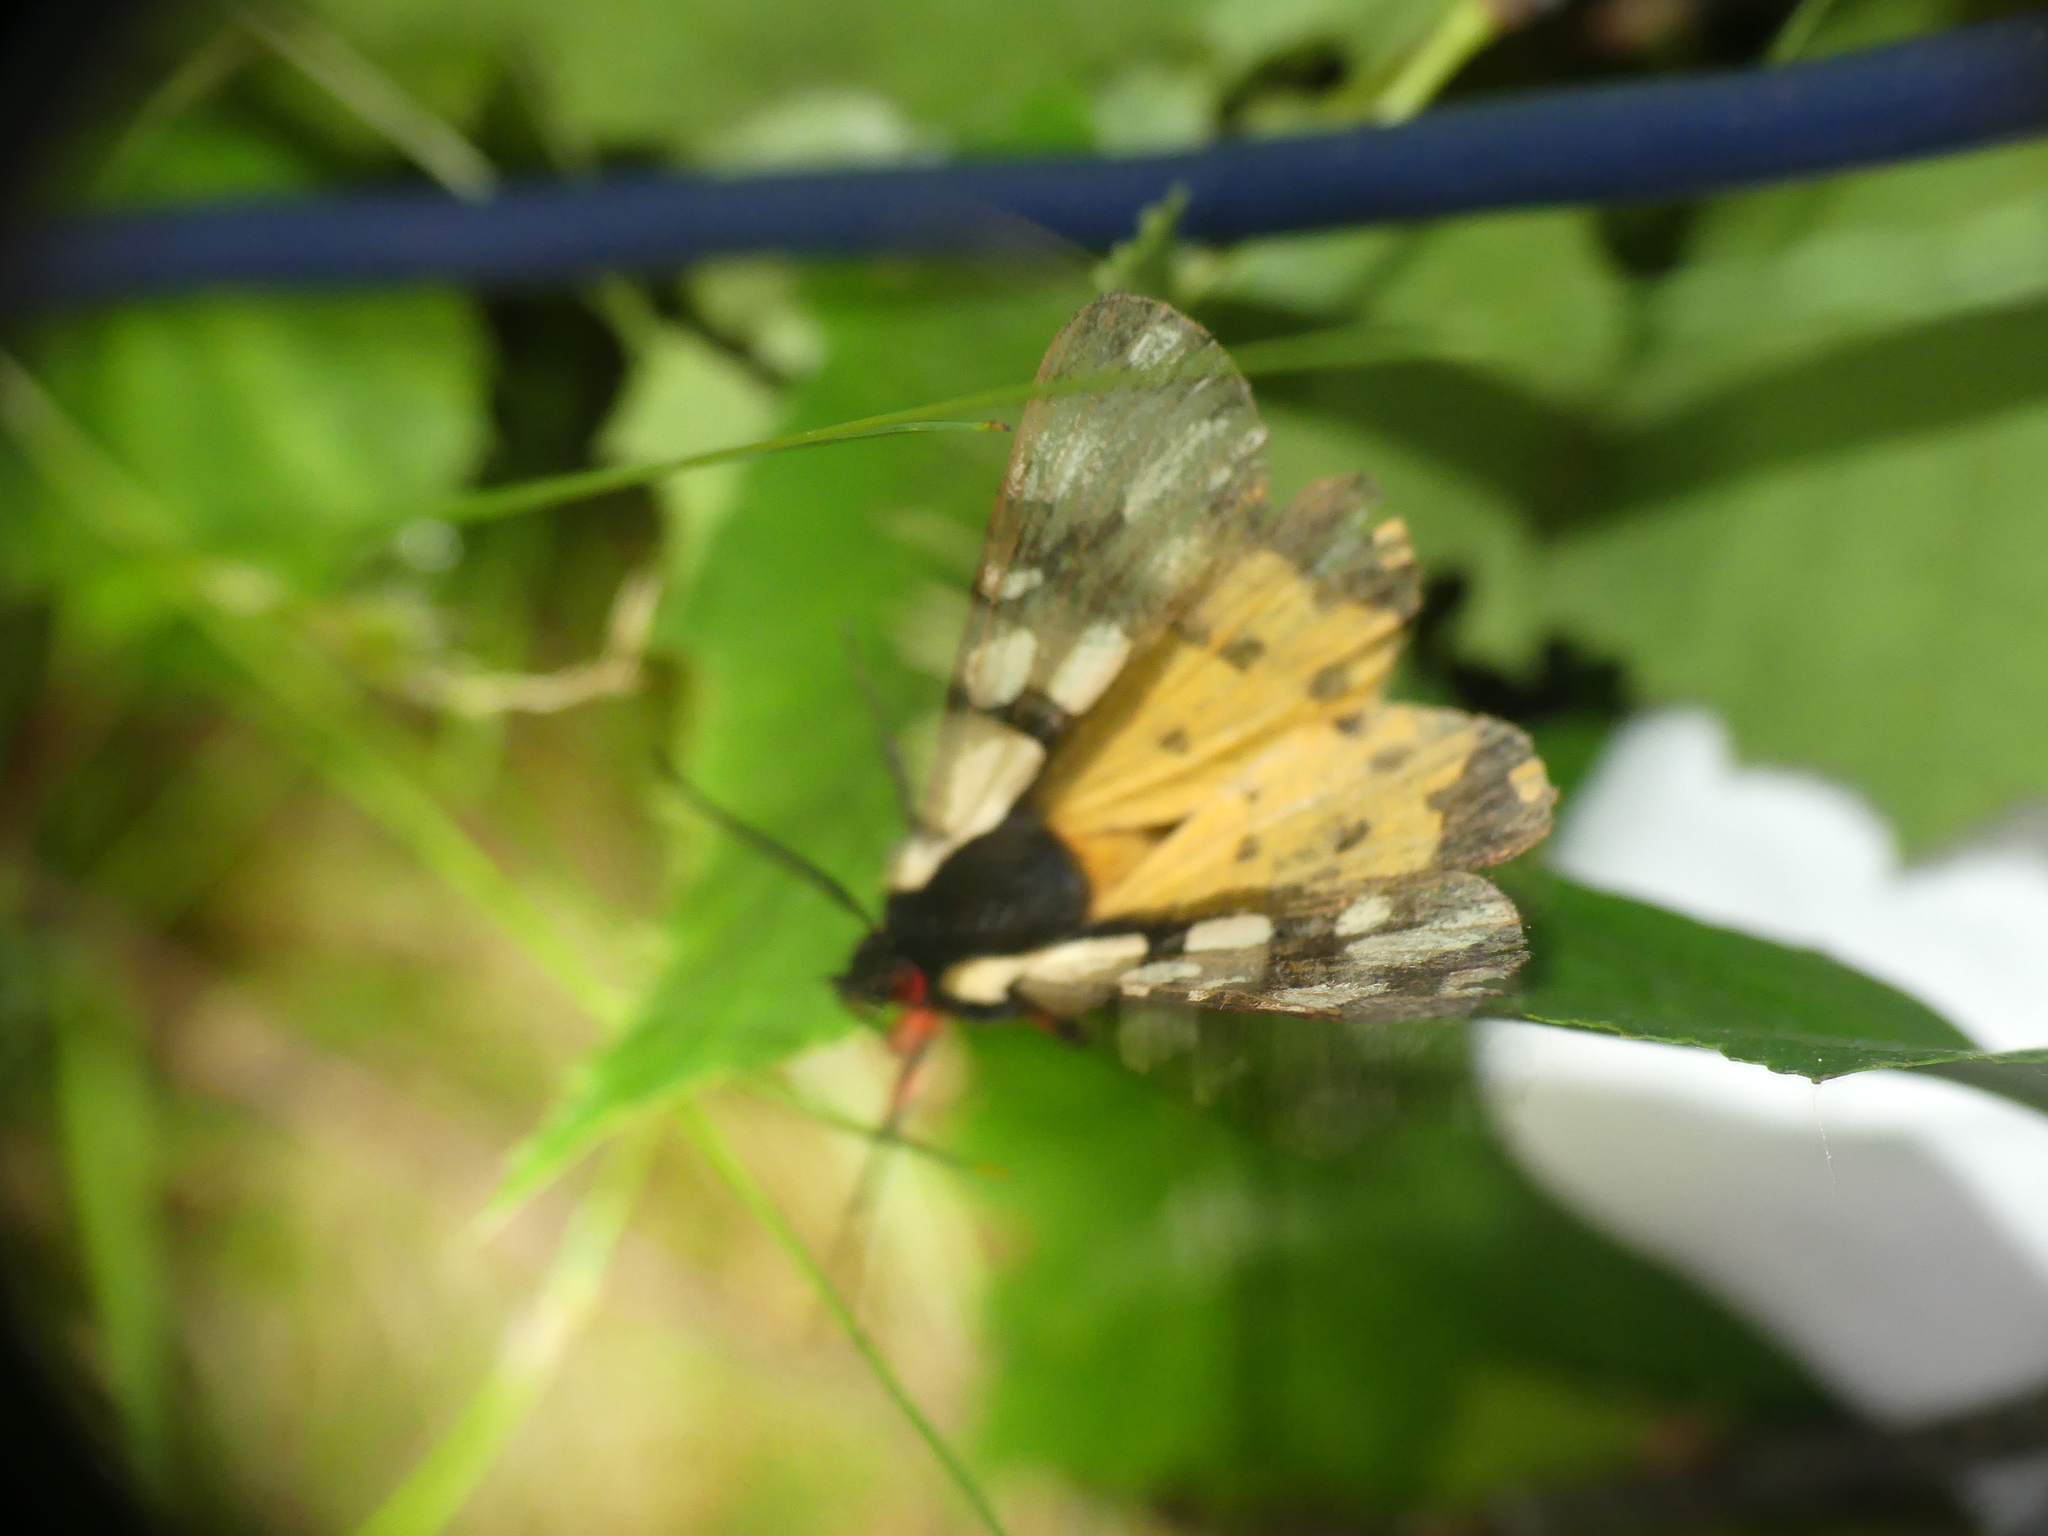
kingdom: Animalia
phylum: Arthropoda
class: Insecta
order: Lepidoptera
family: Erebidae
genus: Epicallia
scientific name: Epicallia villica
